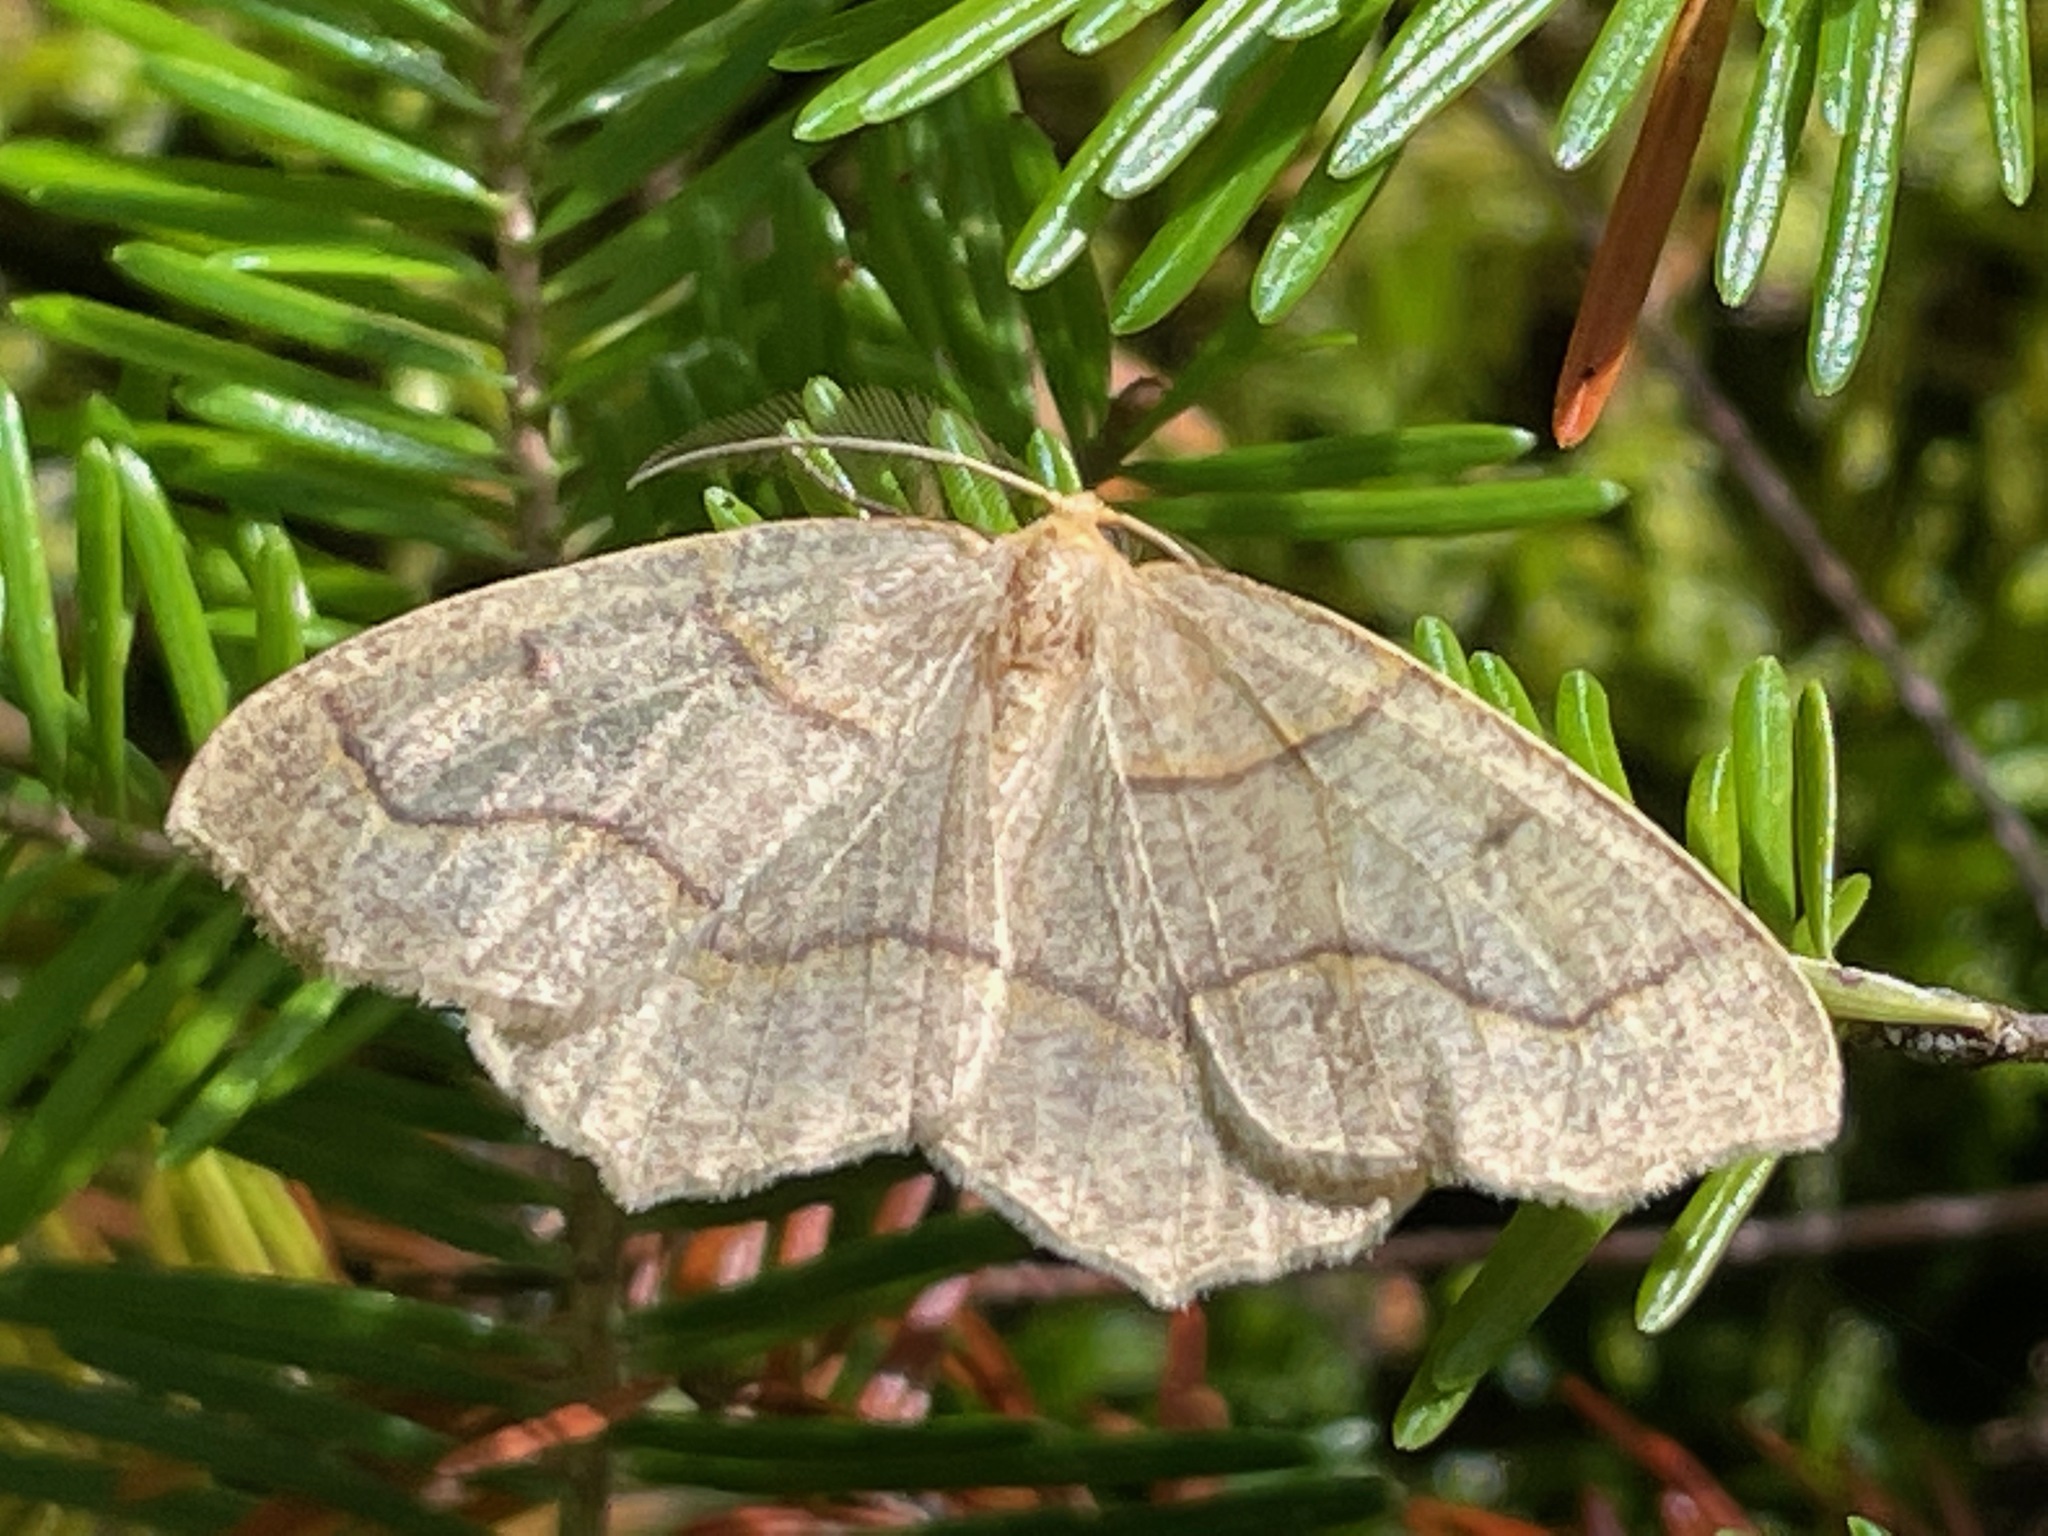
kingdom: Animalia
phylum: Arthropoda
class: Insecta
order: Lepidoptera
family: Geometridae
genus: Lambdina
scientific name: Lambdina fiscellaria
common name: Hemlock looper
